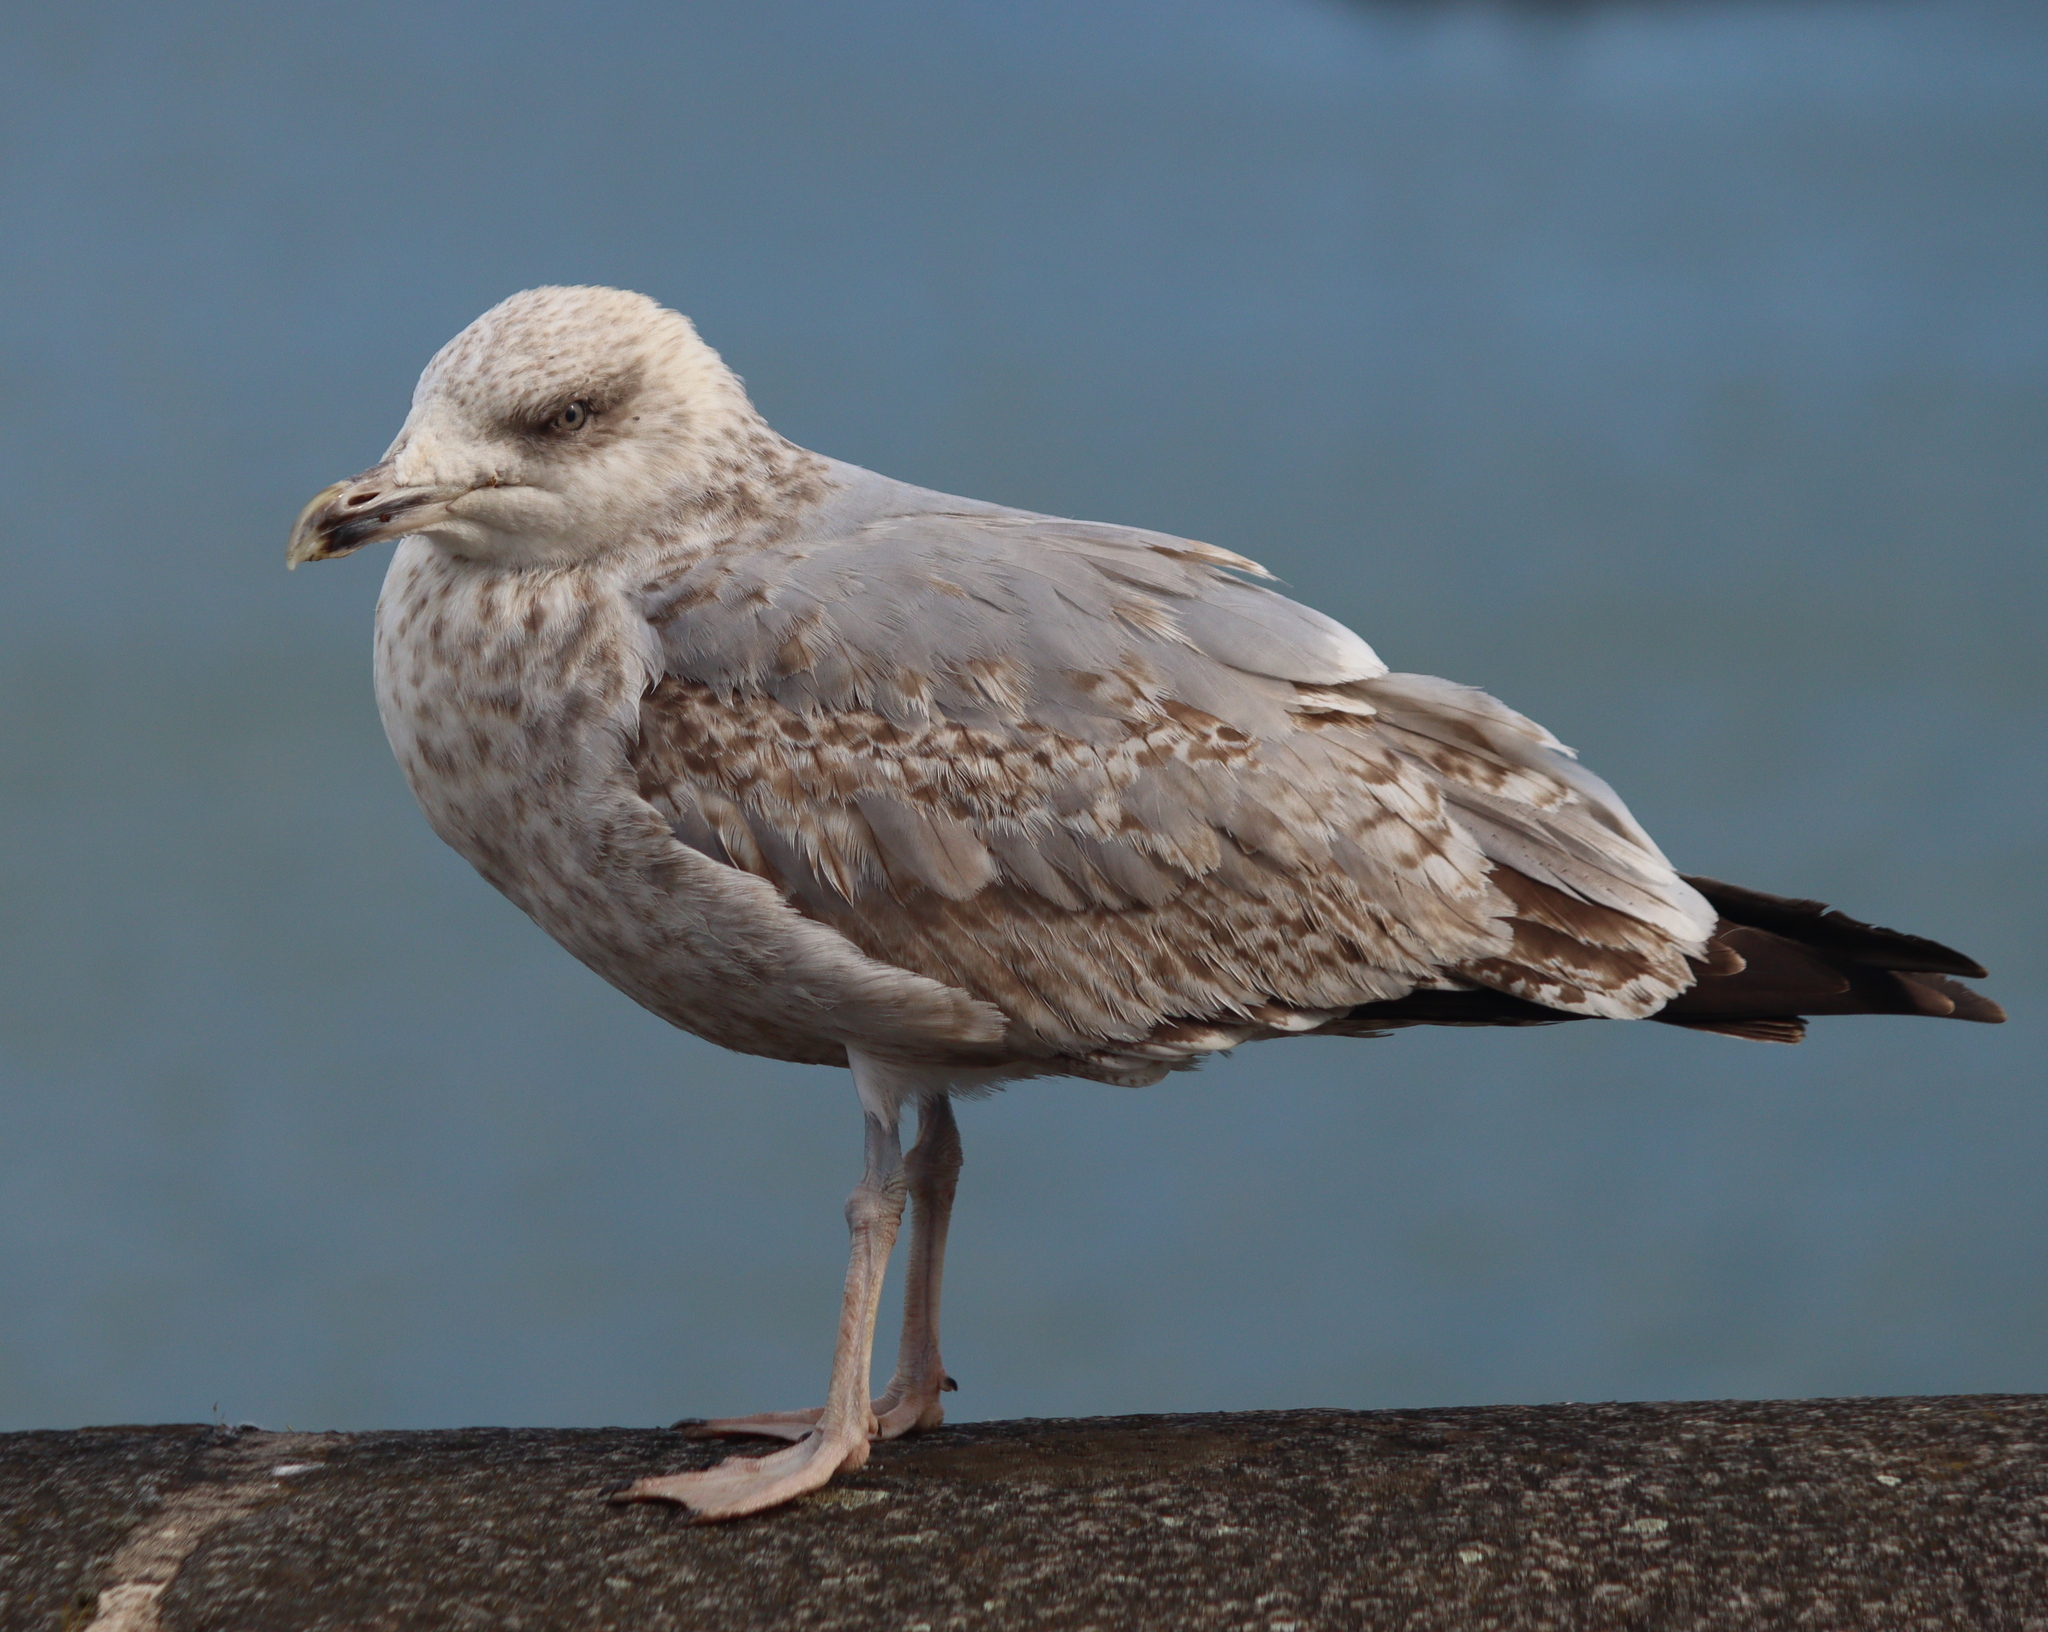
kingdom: Animalia
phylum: Chordata
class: Aves
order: Charadriiformes
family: Laridae
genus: Larus
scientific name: Larus argentatus
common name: Herring gull
